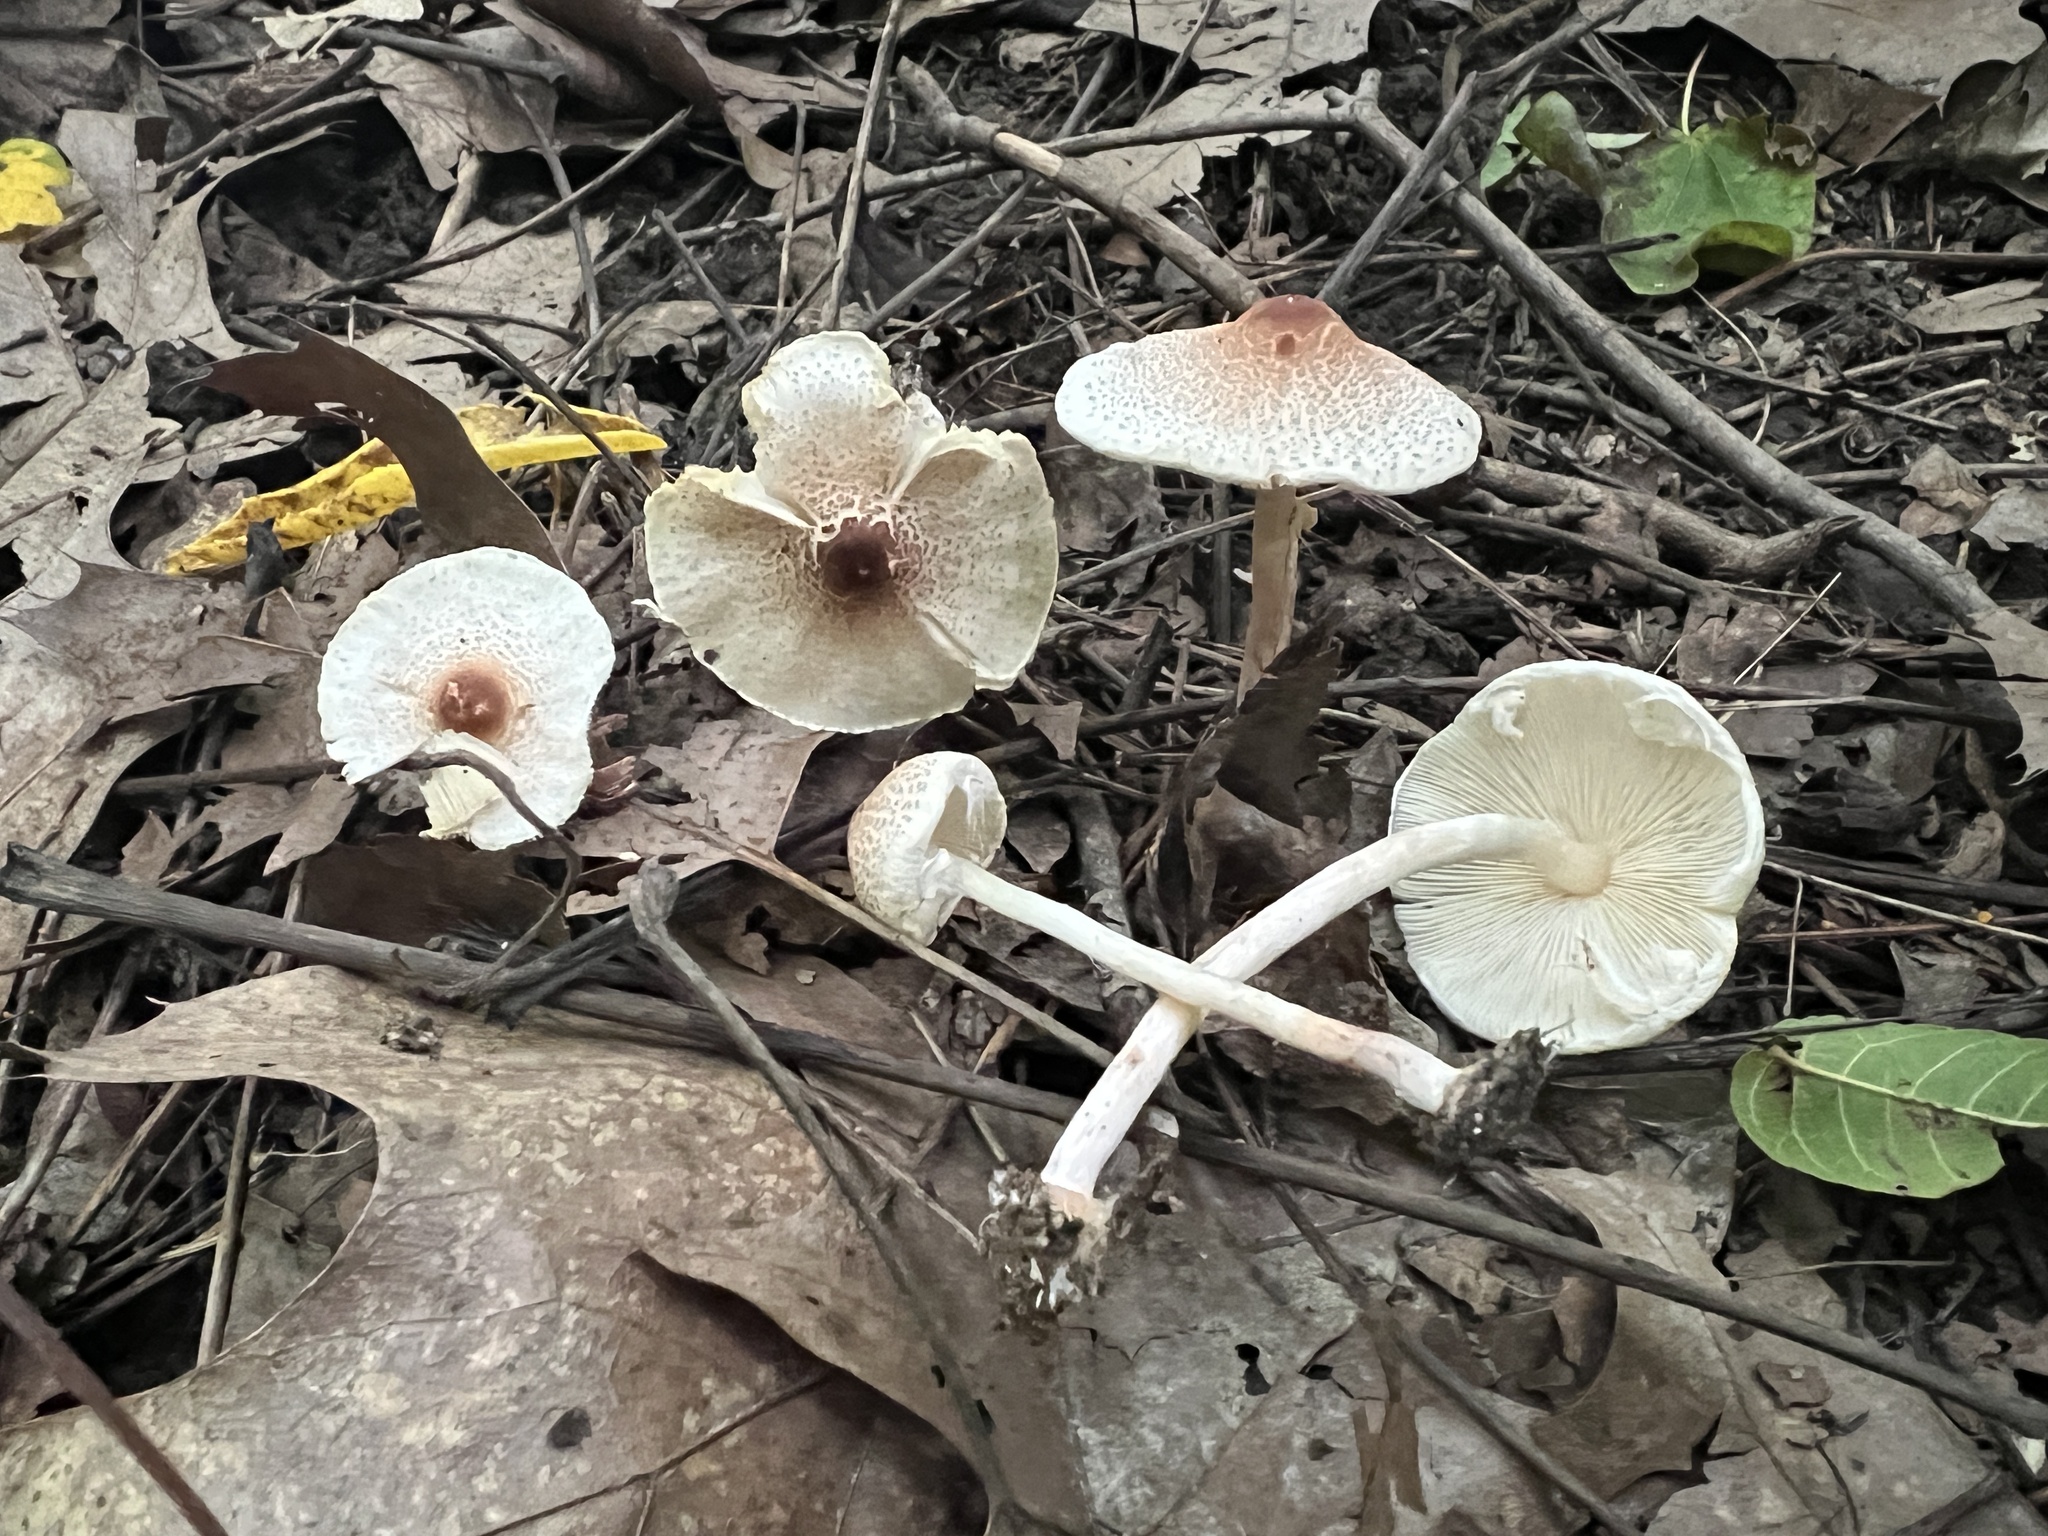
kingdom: Fungi
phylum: Basidiomycota
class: Agaricomycetes
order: Agaricales
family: Agaricaceae
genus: Lepiota
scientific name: Lepiota cristata
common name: Stinking dapperling
